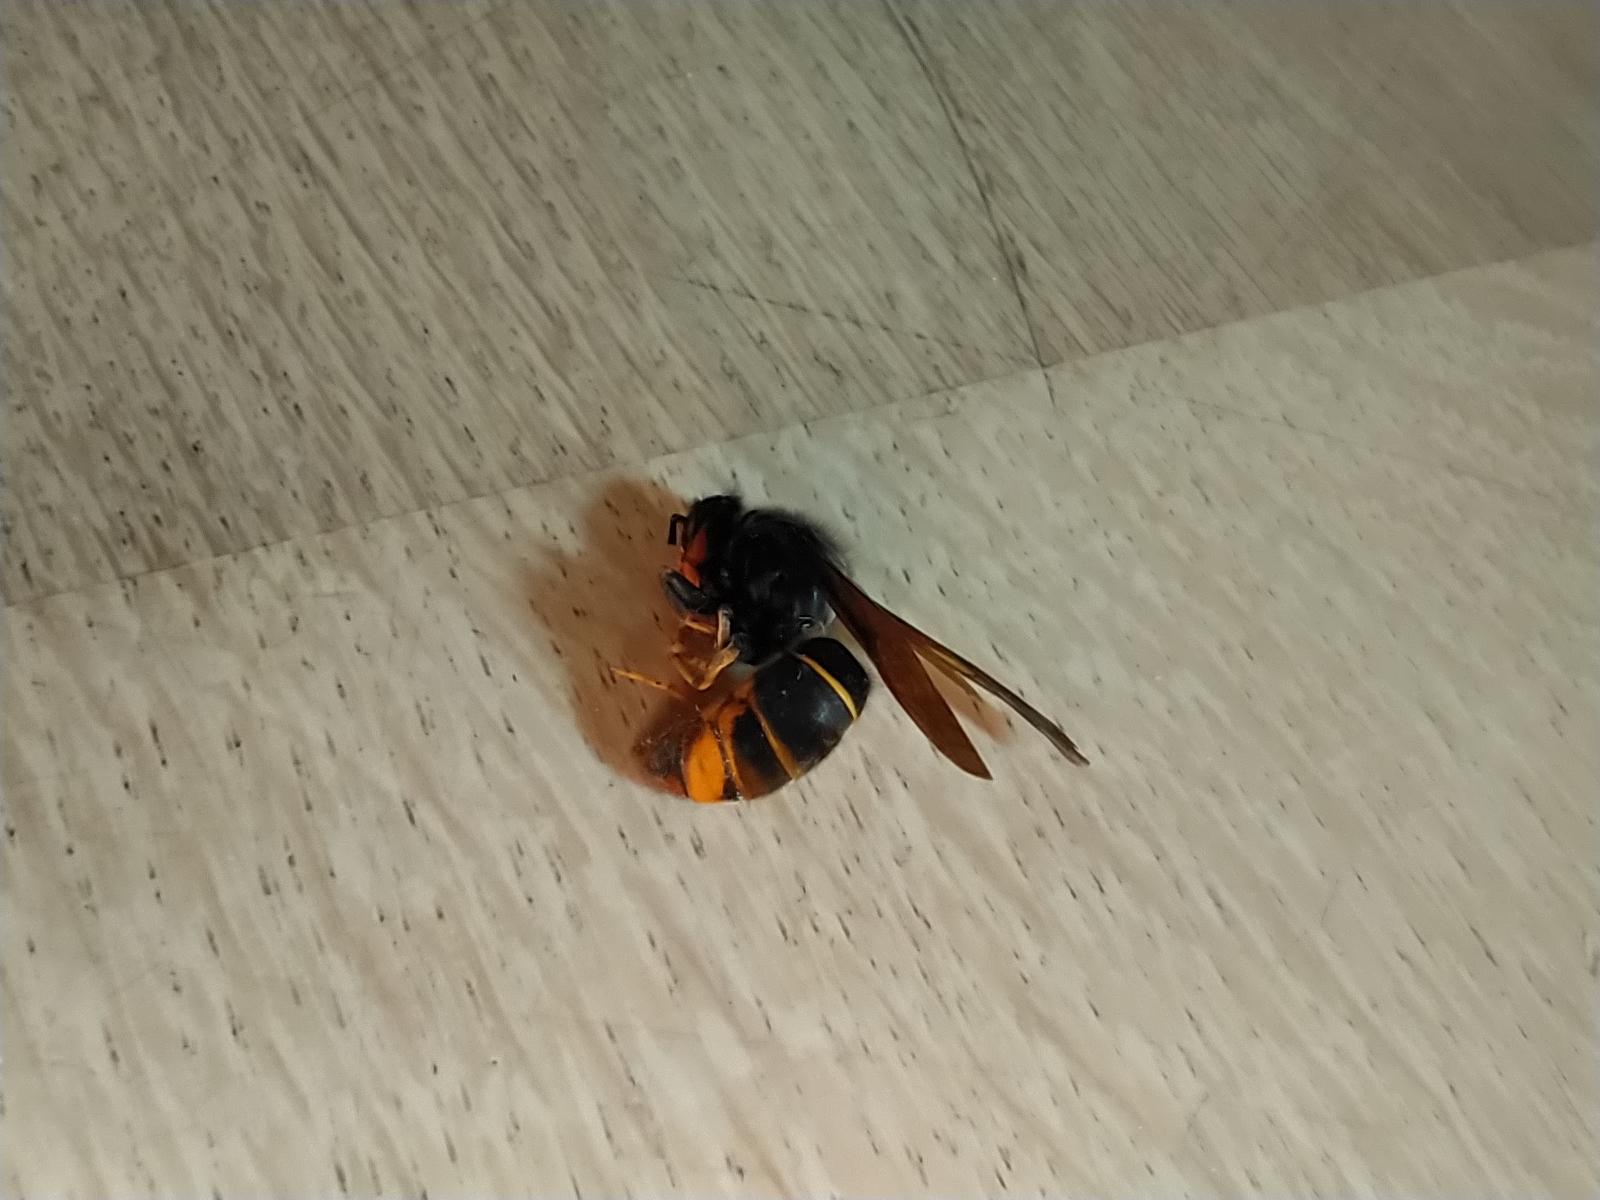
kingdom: Animalia
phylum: Arthropoda
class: Insecta
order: Hymenoptera
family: Vespidae
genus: Vespa
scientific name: Vespa velutina
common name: Asian hornet
